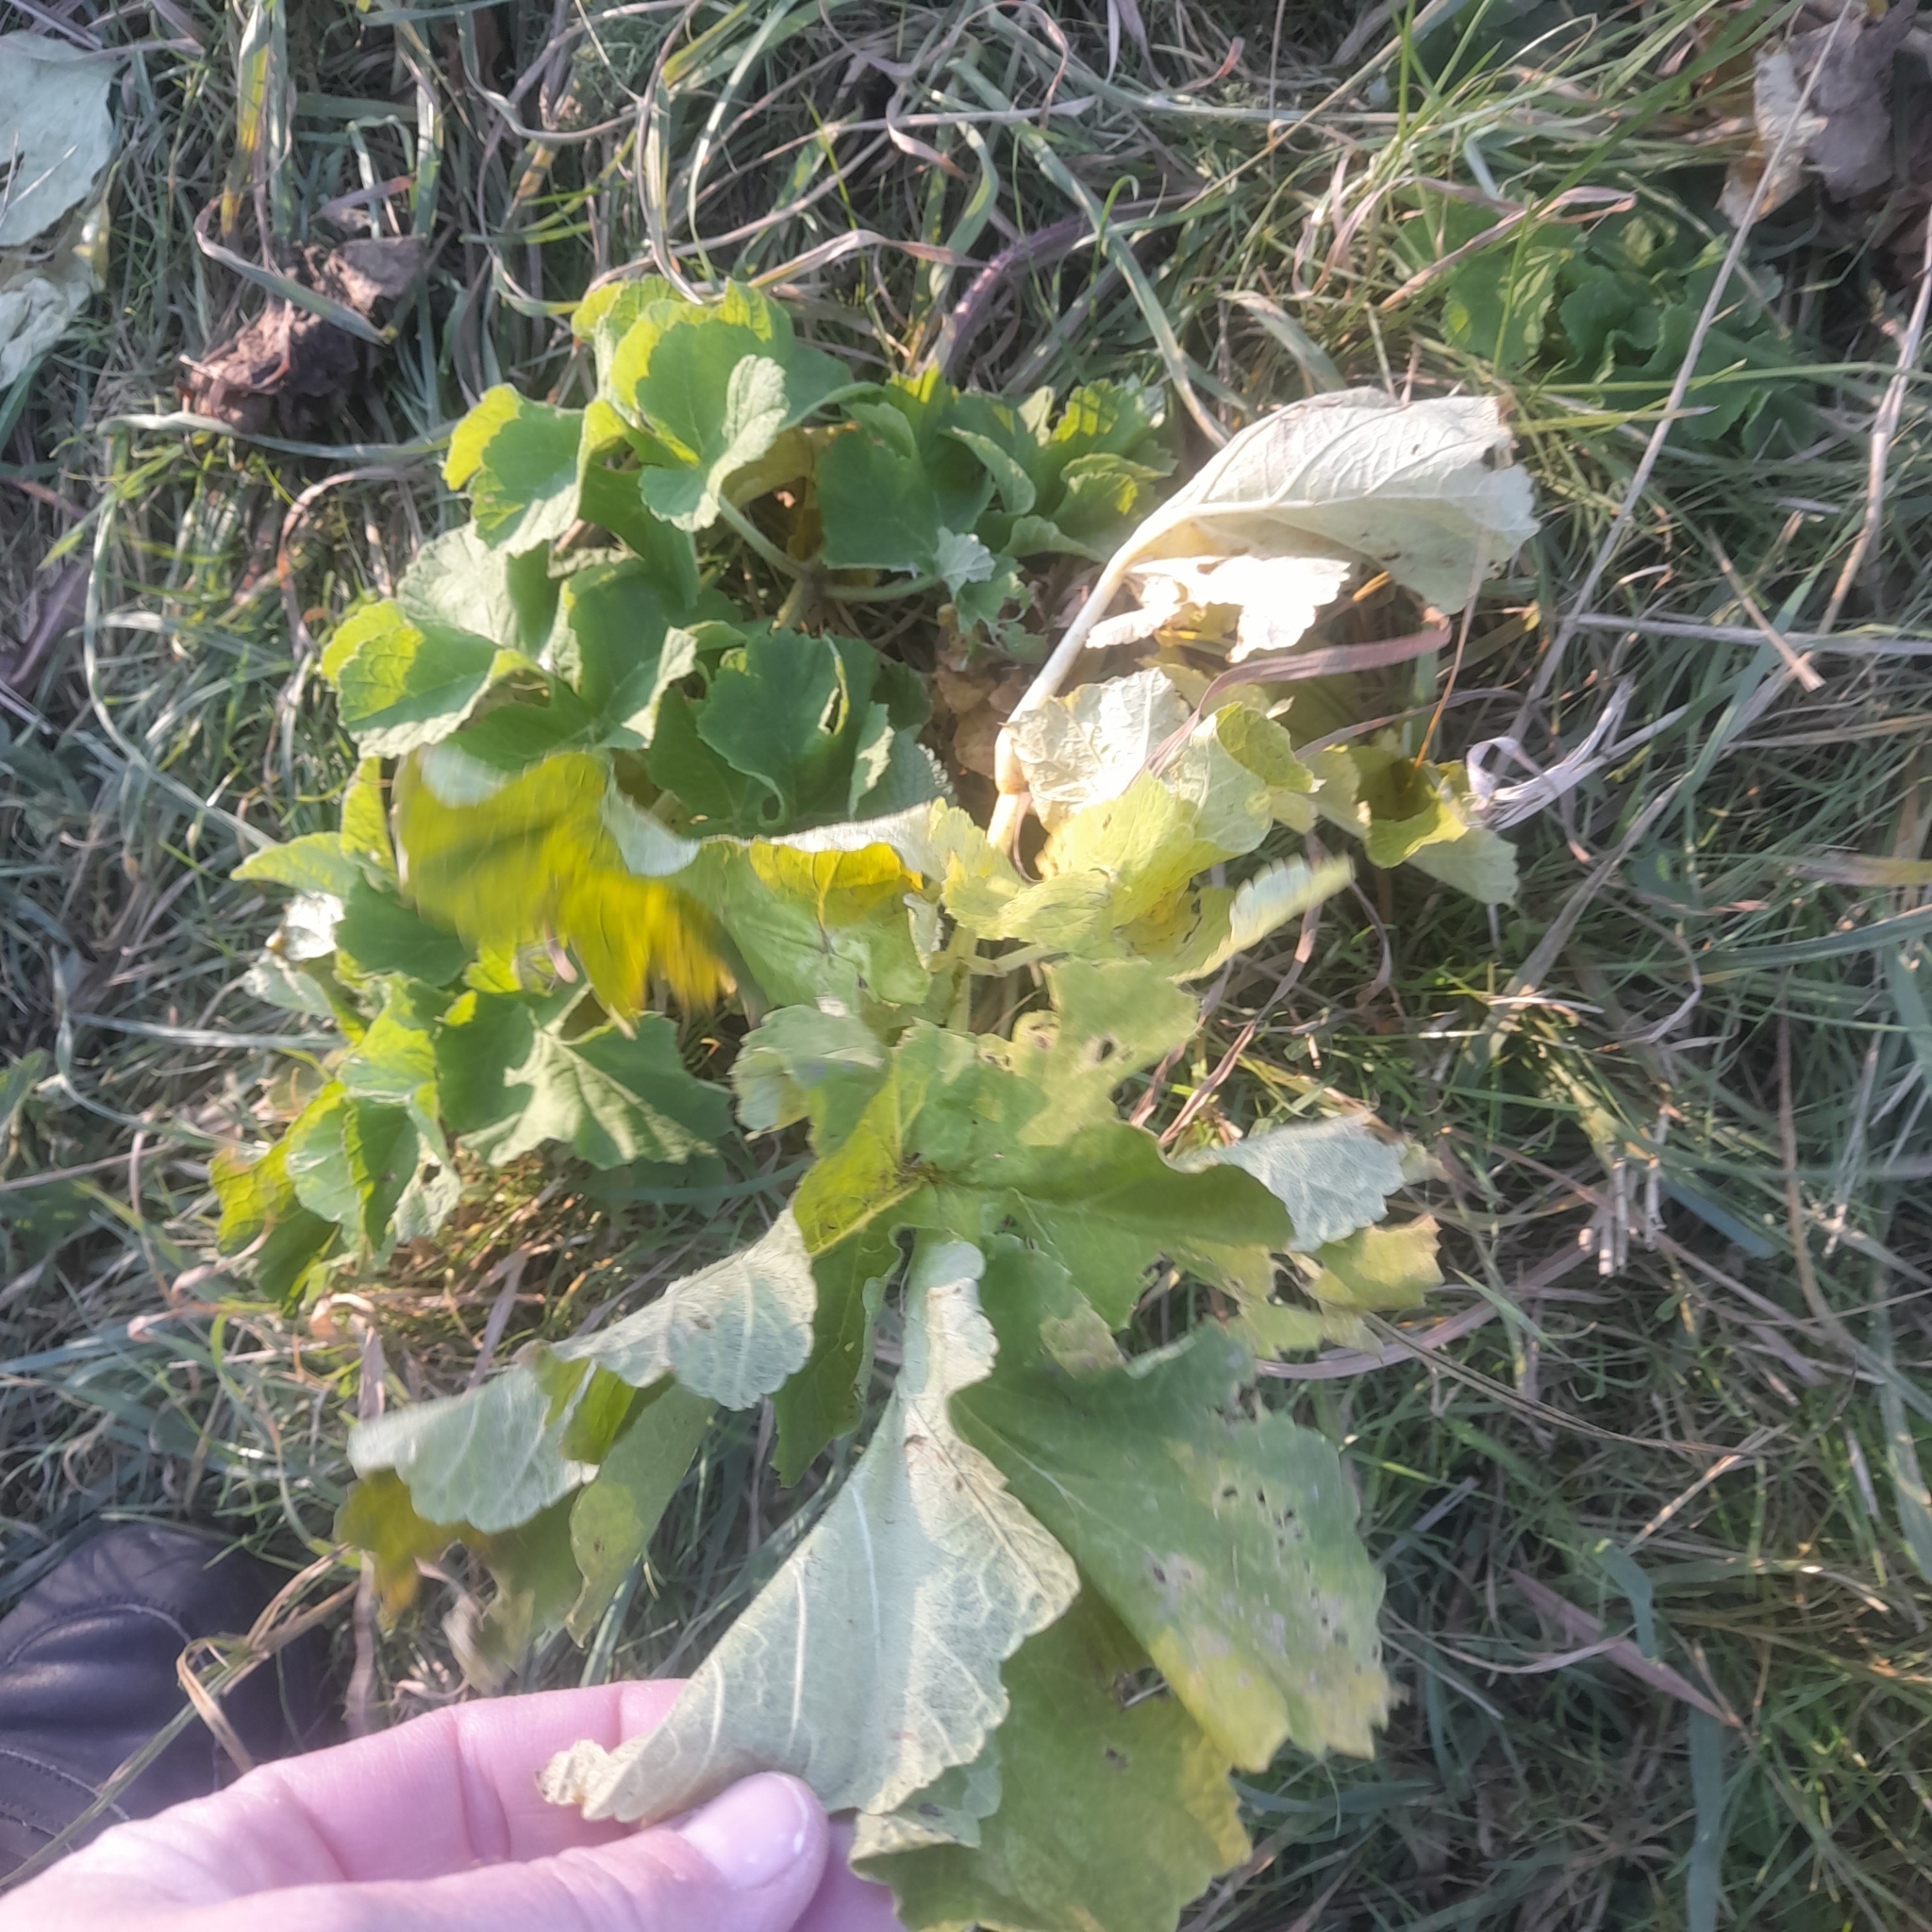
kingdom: Plantae
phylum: Tracheophyta
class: Magnoliopsida
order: Apiales
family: Apiaceae
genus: Heracleum
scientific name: Heracleum sphondylium
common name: Hogweed
